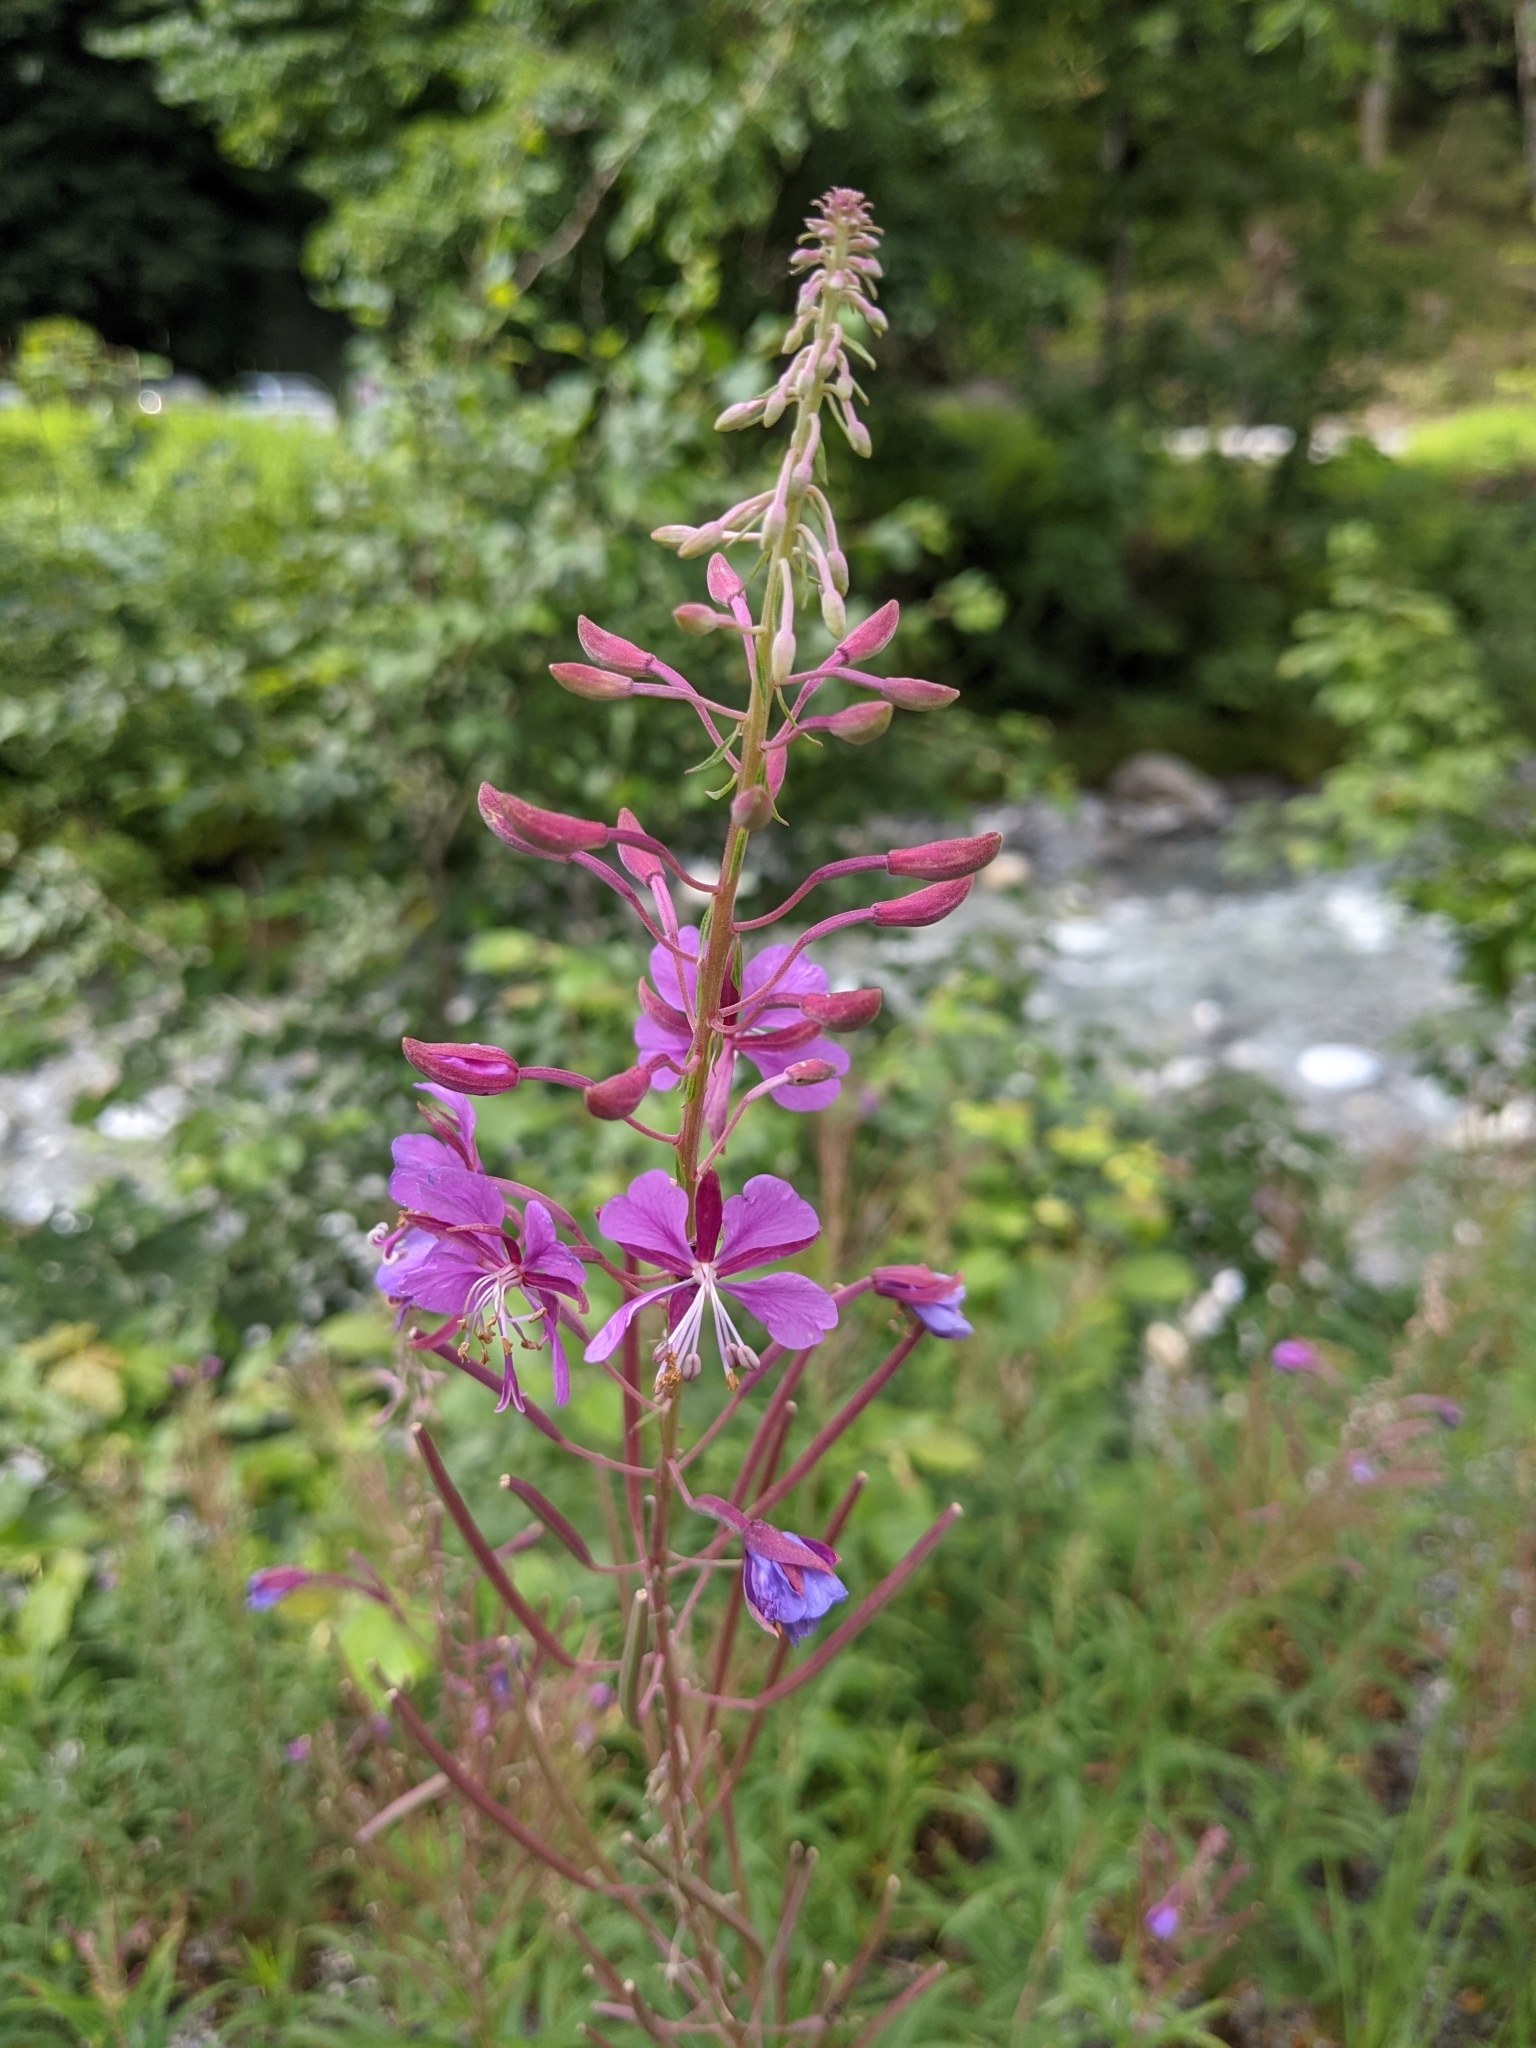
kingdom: Plantae
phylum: Tracheophyta
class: Magnoliopsida
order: Myrtales
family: Onagraceae
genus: Chamaenerion
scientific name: Chamaenerion angustifolium
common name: Fireweed
